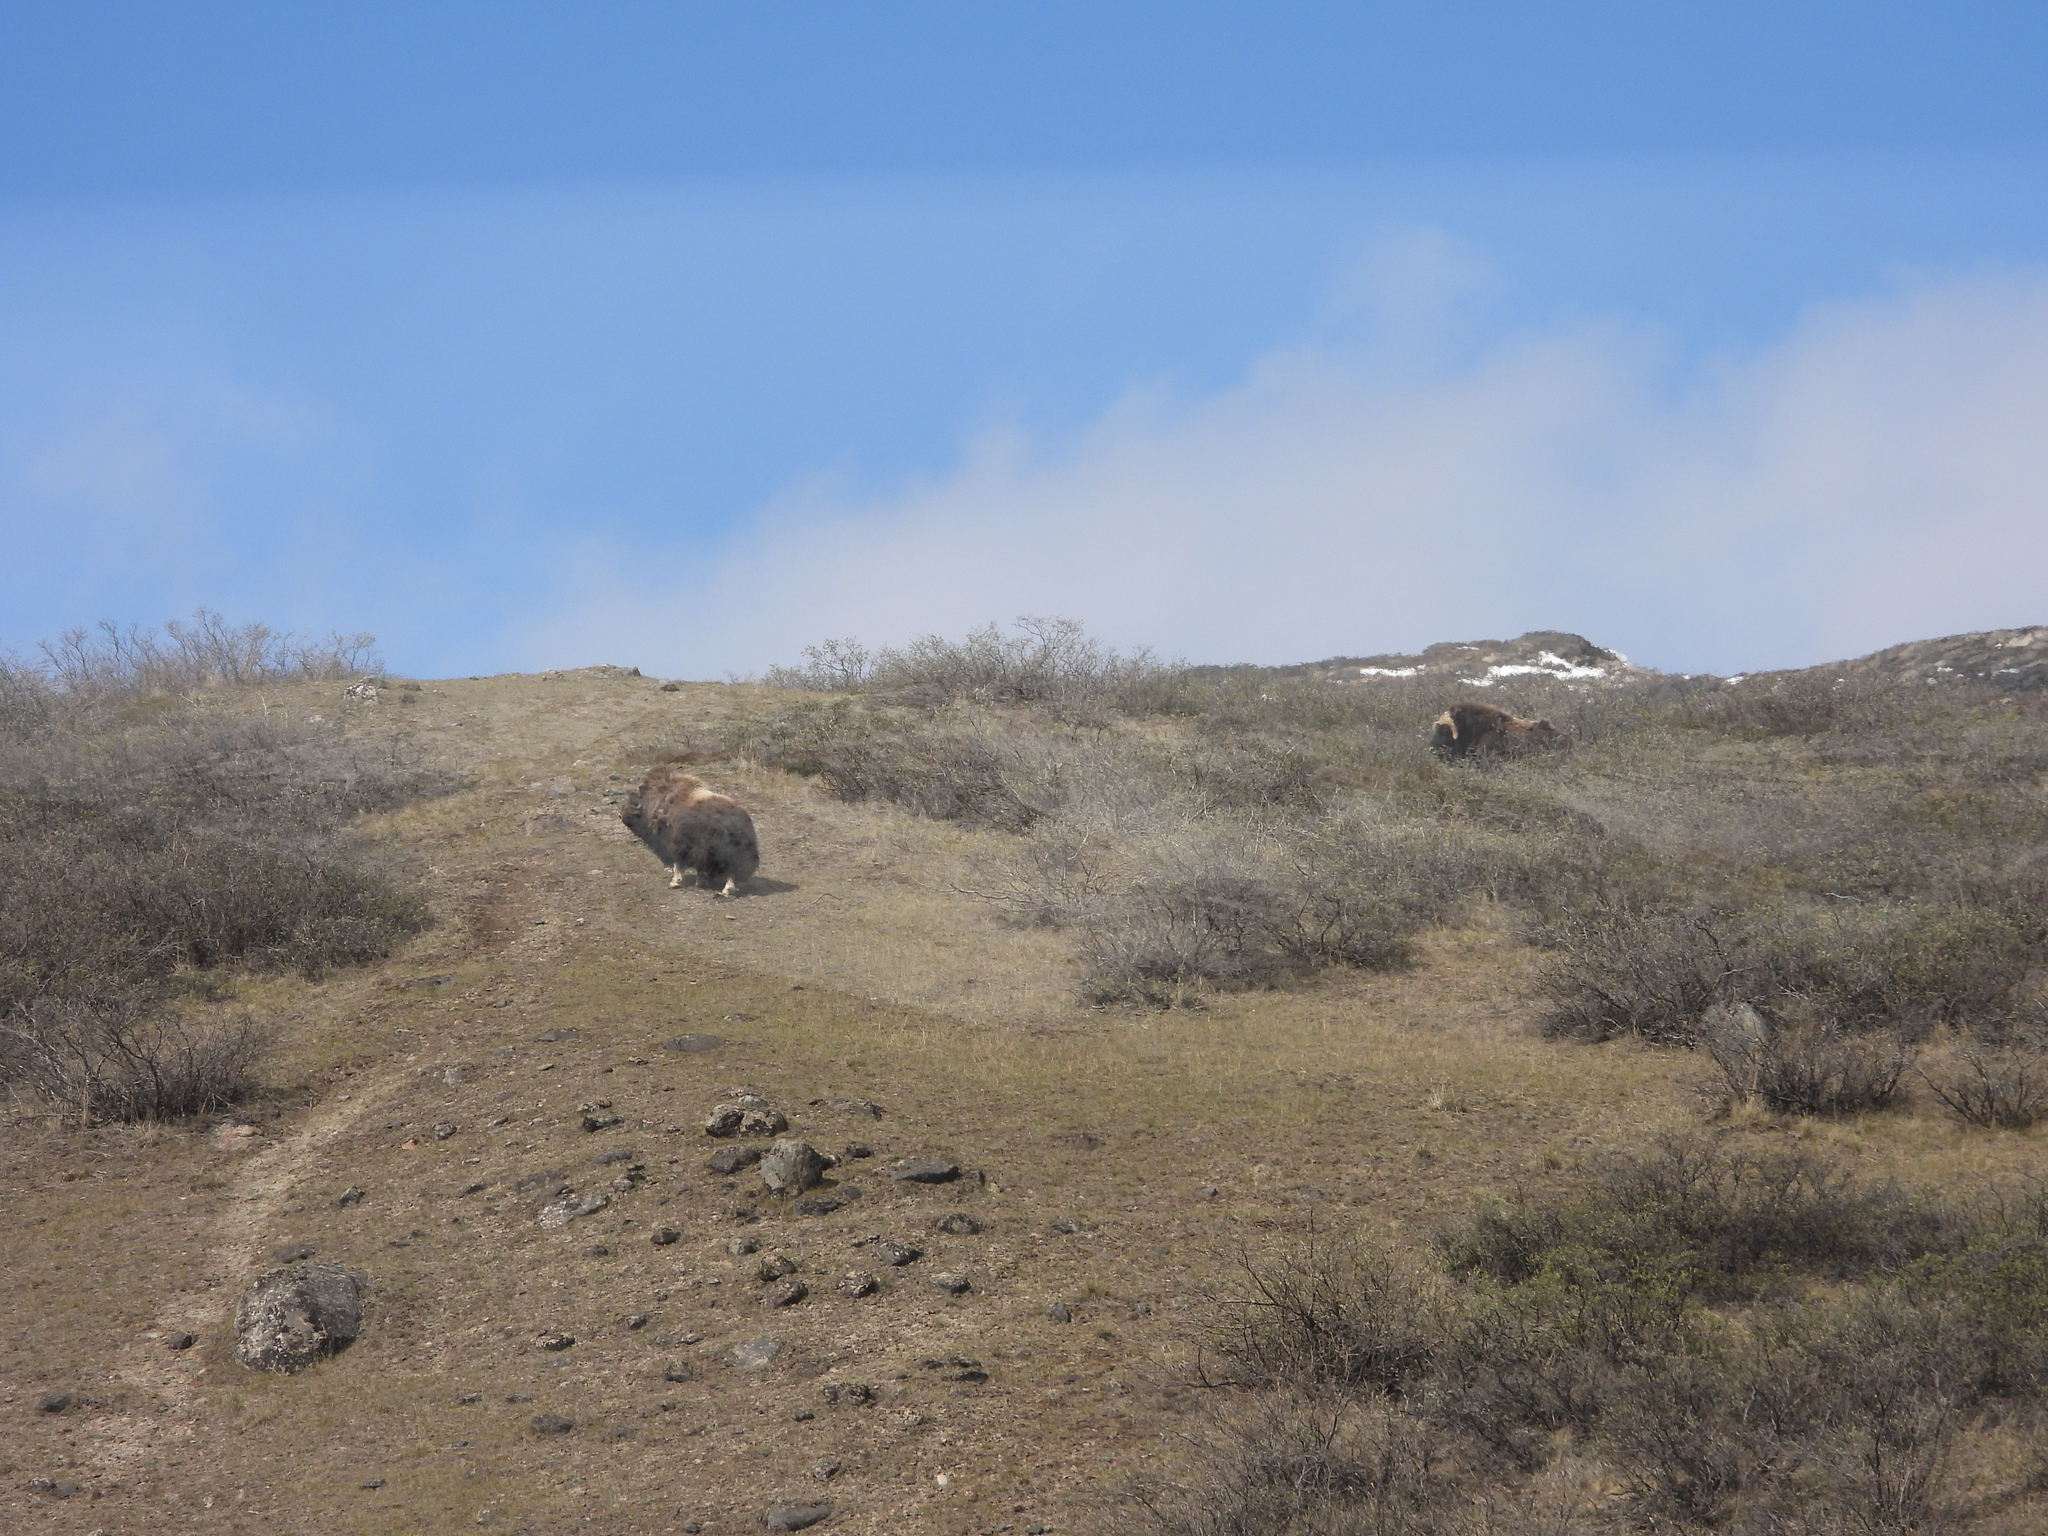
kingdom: Animalia
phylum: Chordata
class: Mammalia
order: Artiodactyla
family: Bovidae
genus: Ovibos
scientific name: Ovibos moschatus
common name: Muskox
